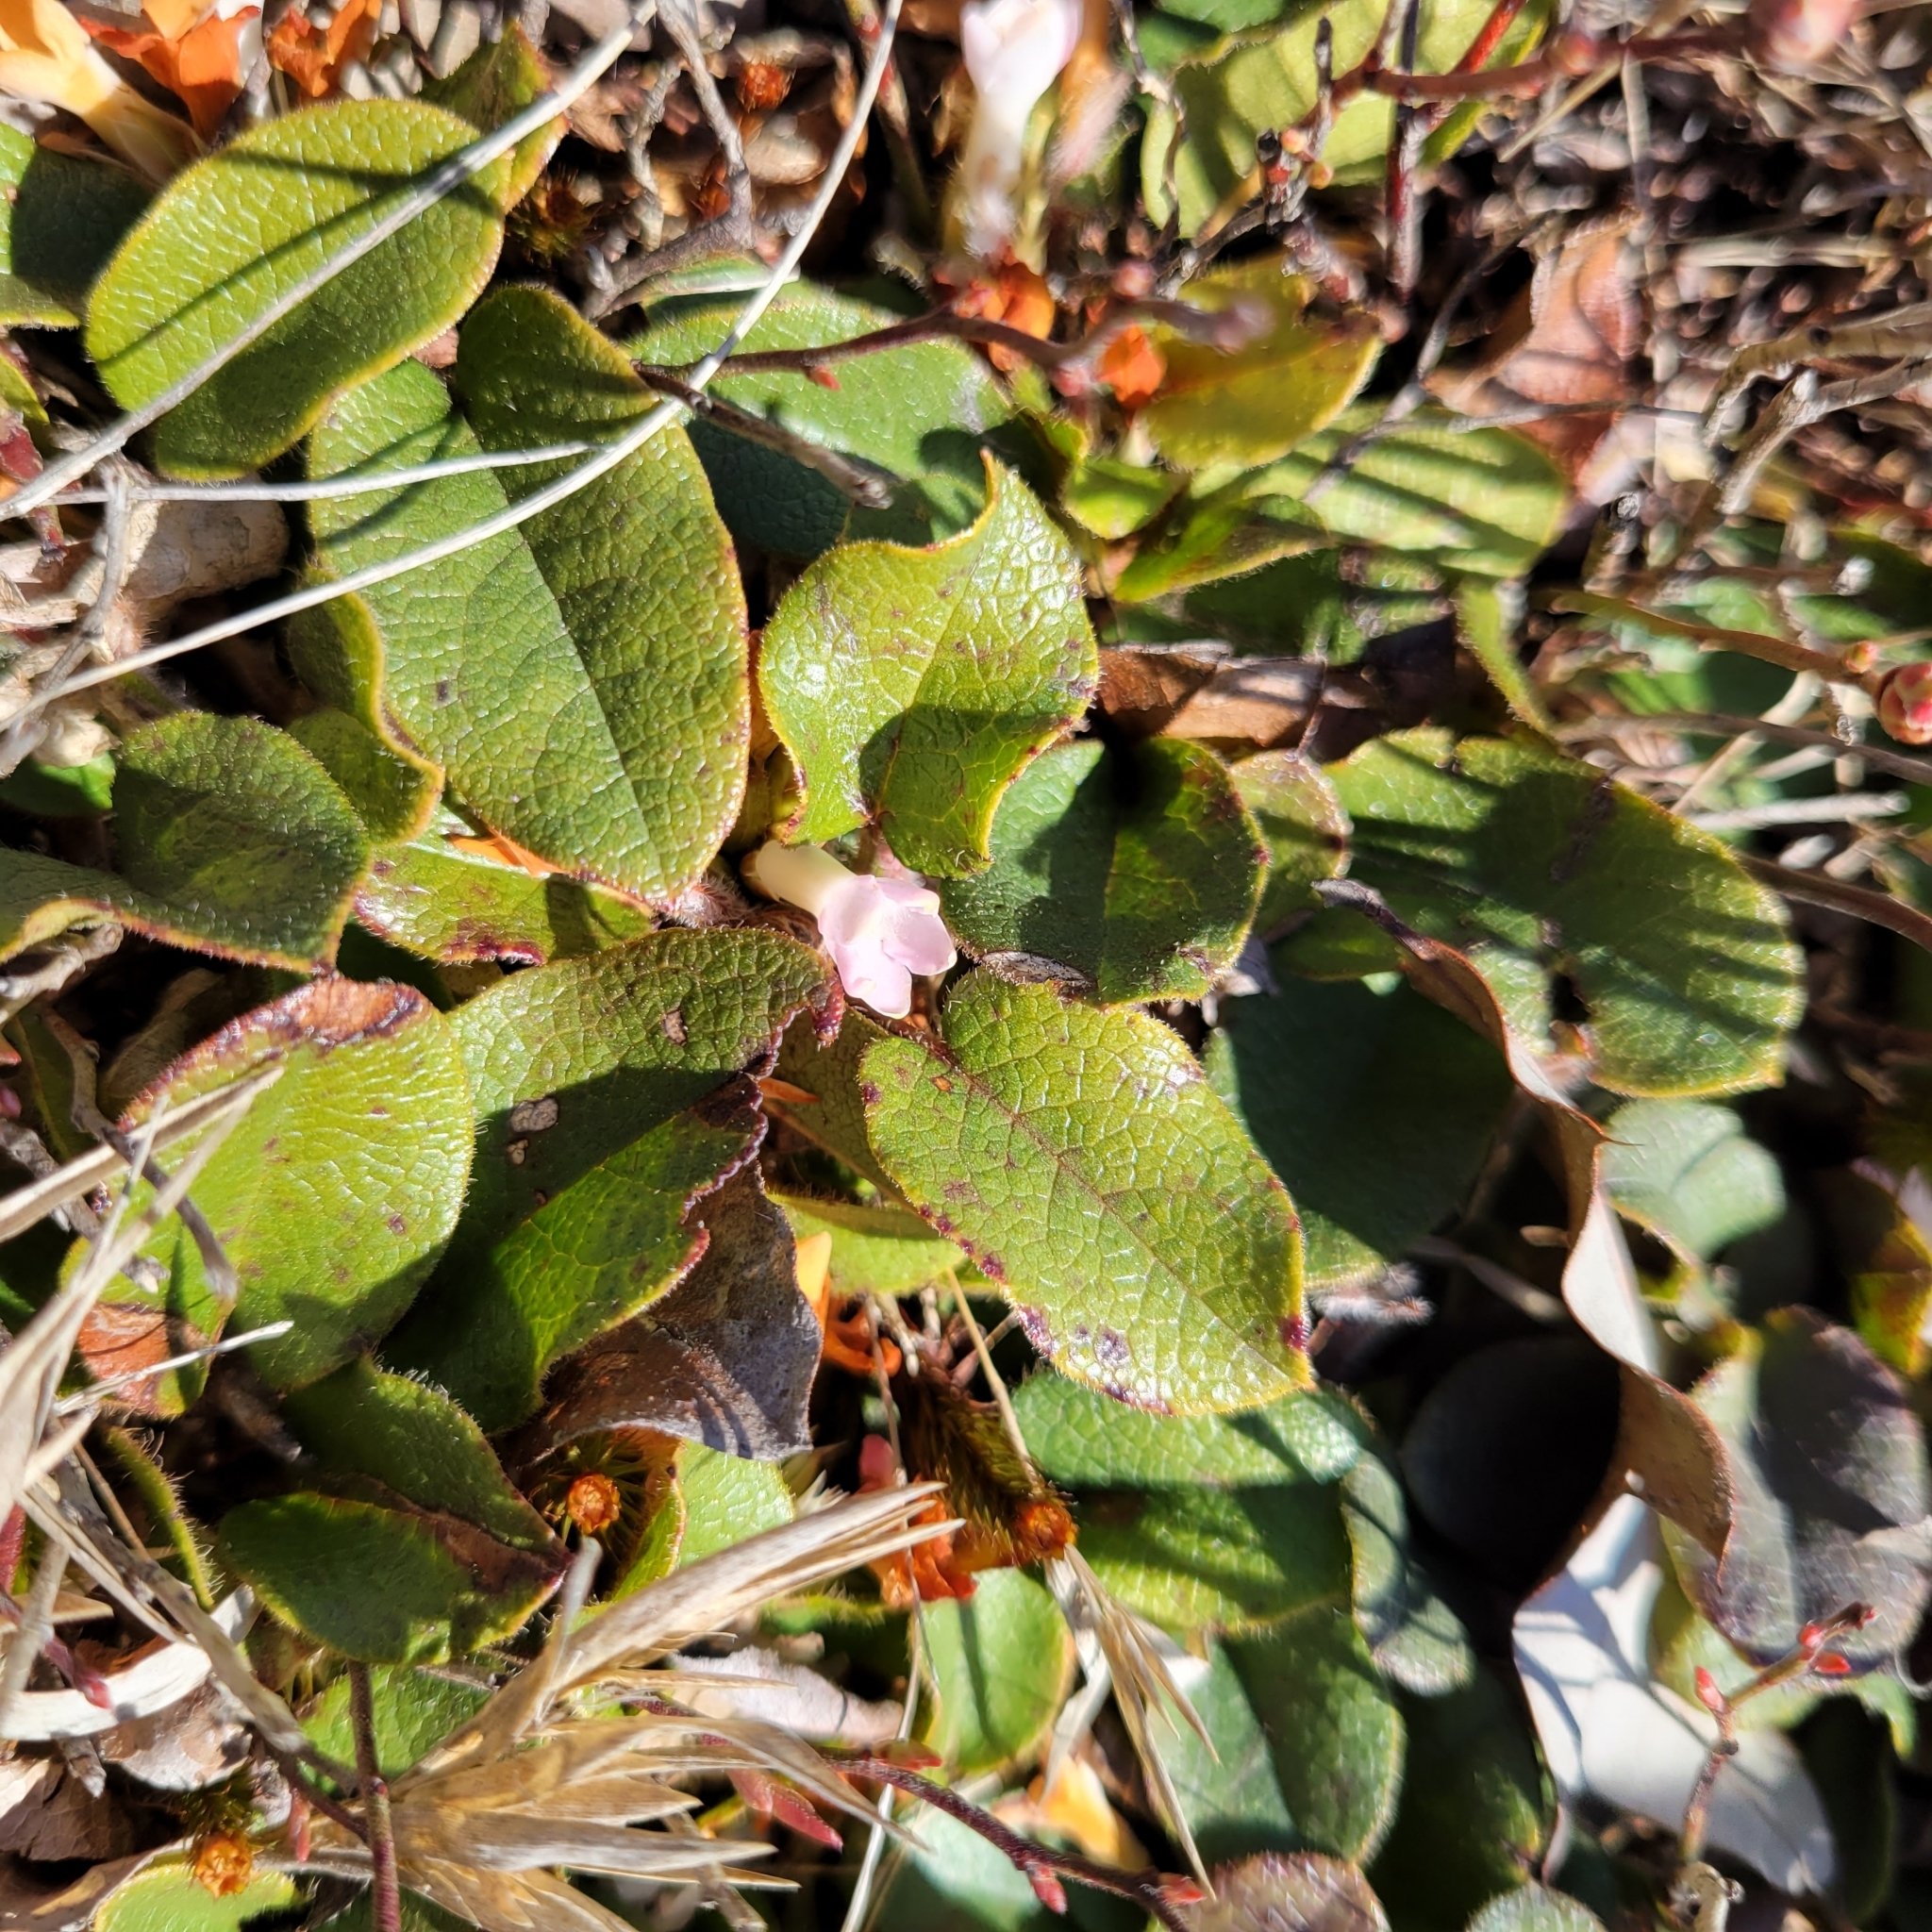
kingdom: Plantae
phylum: Tracheophyta
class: Magnoliopsida
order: Ericales
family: Ericaceae
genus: Epigaea
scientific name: Epigaea repens
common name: Gravelroot
